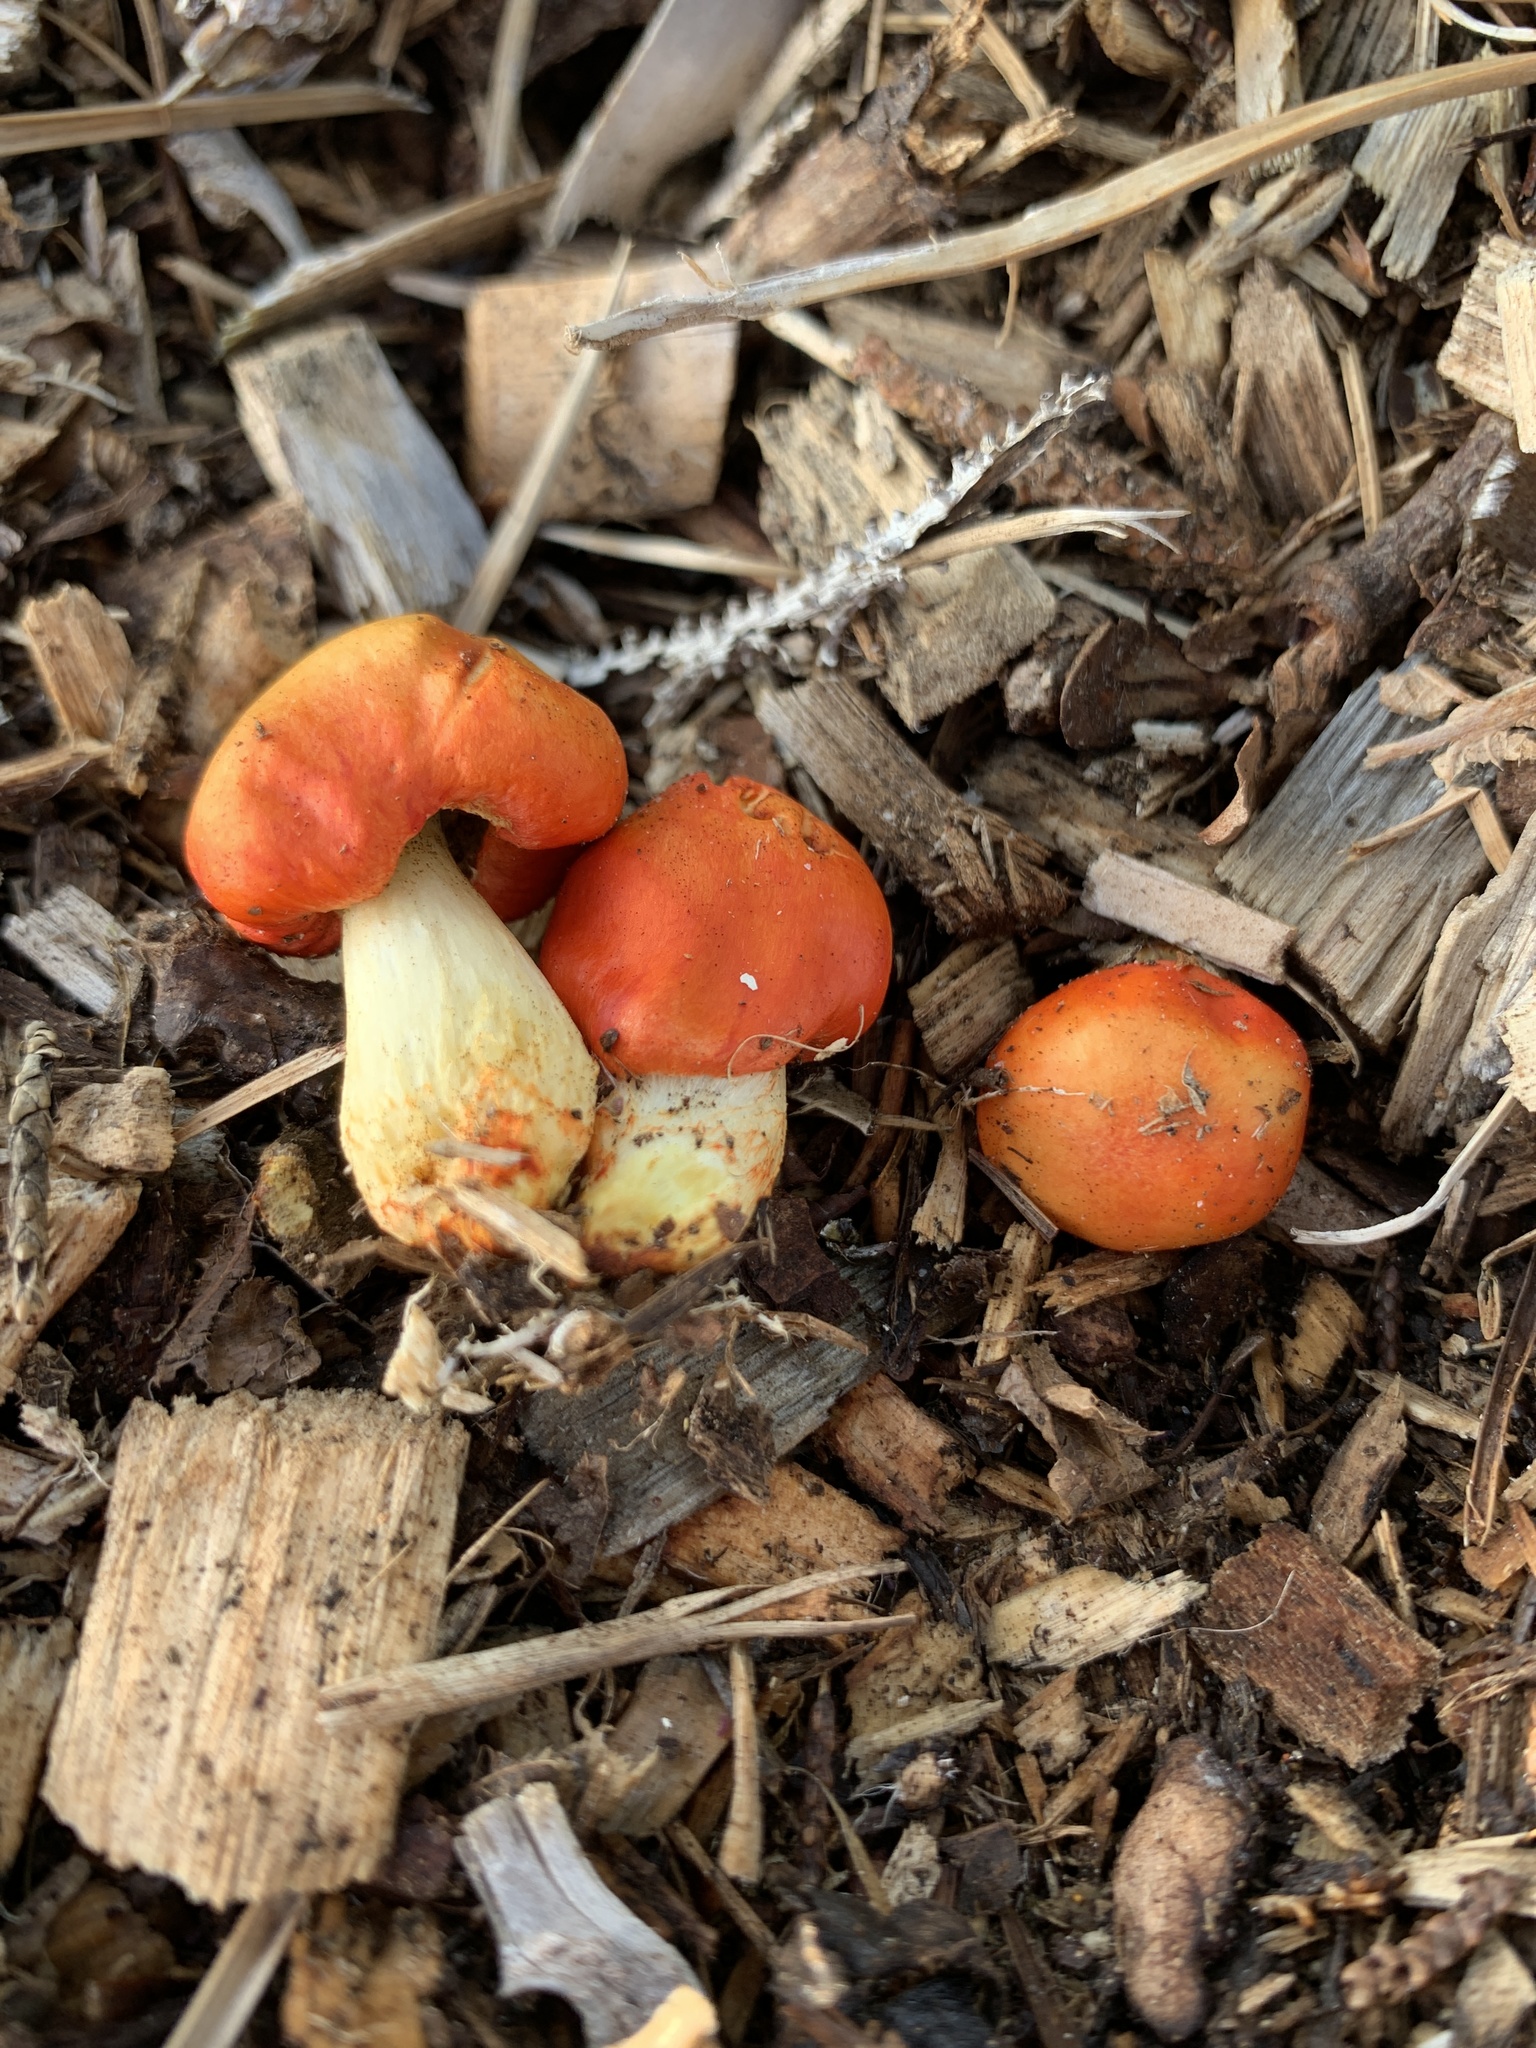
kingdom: Fungi
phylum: Basidiomycota
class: Agaricomycetes
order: Agaricales
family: Strophariaceae
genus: Leratiomyces
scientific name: Leratiomyces erythrocephalus
